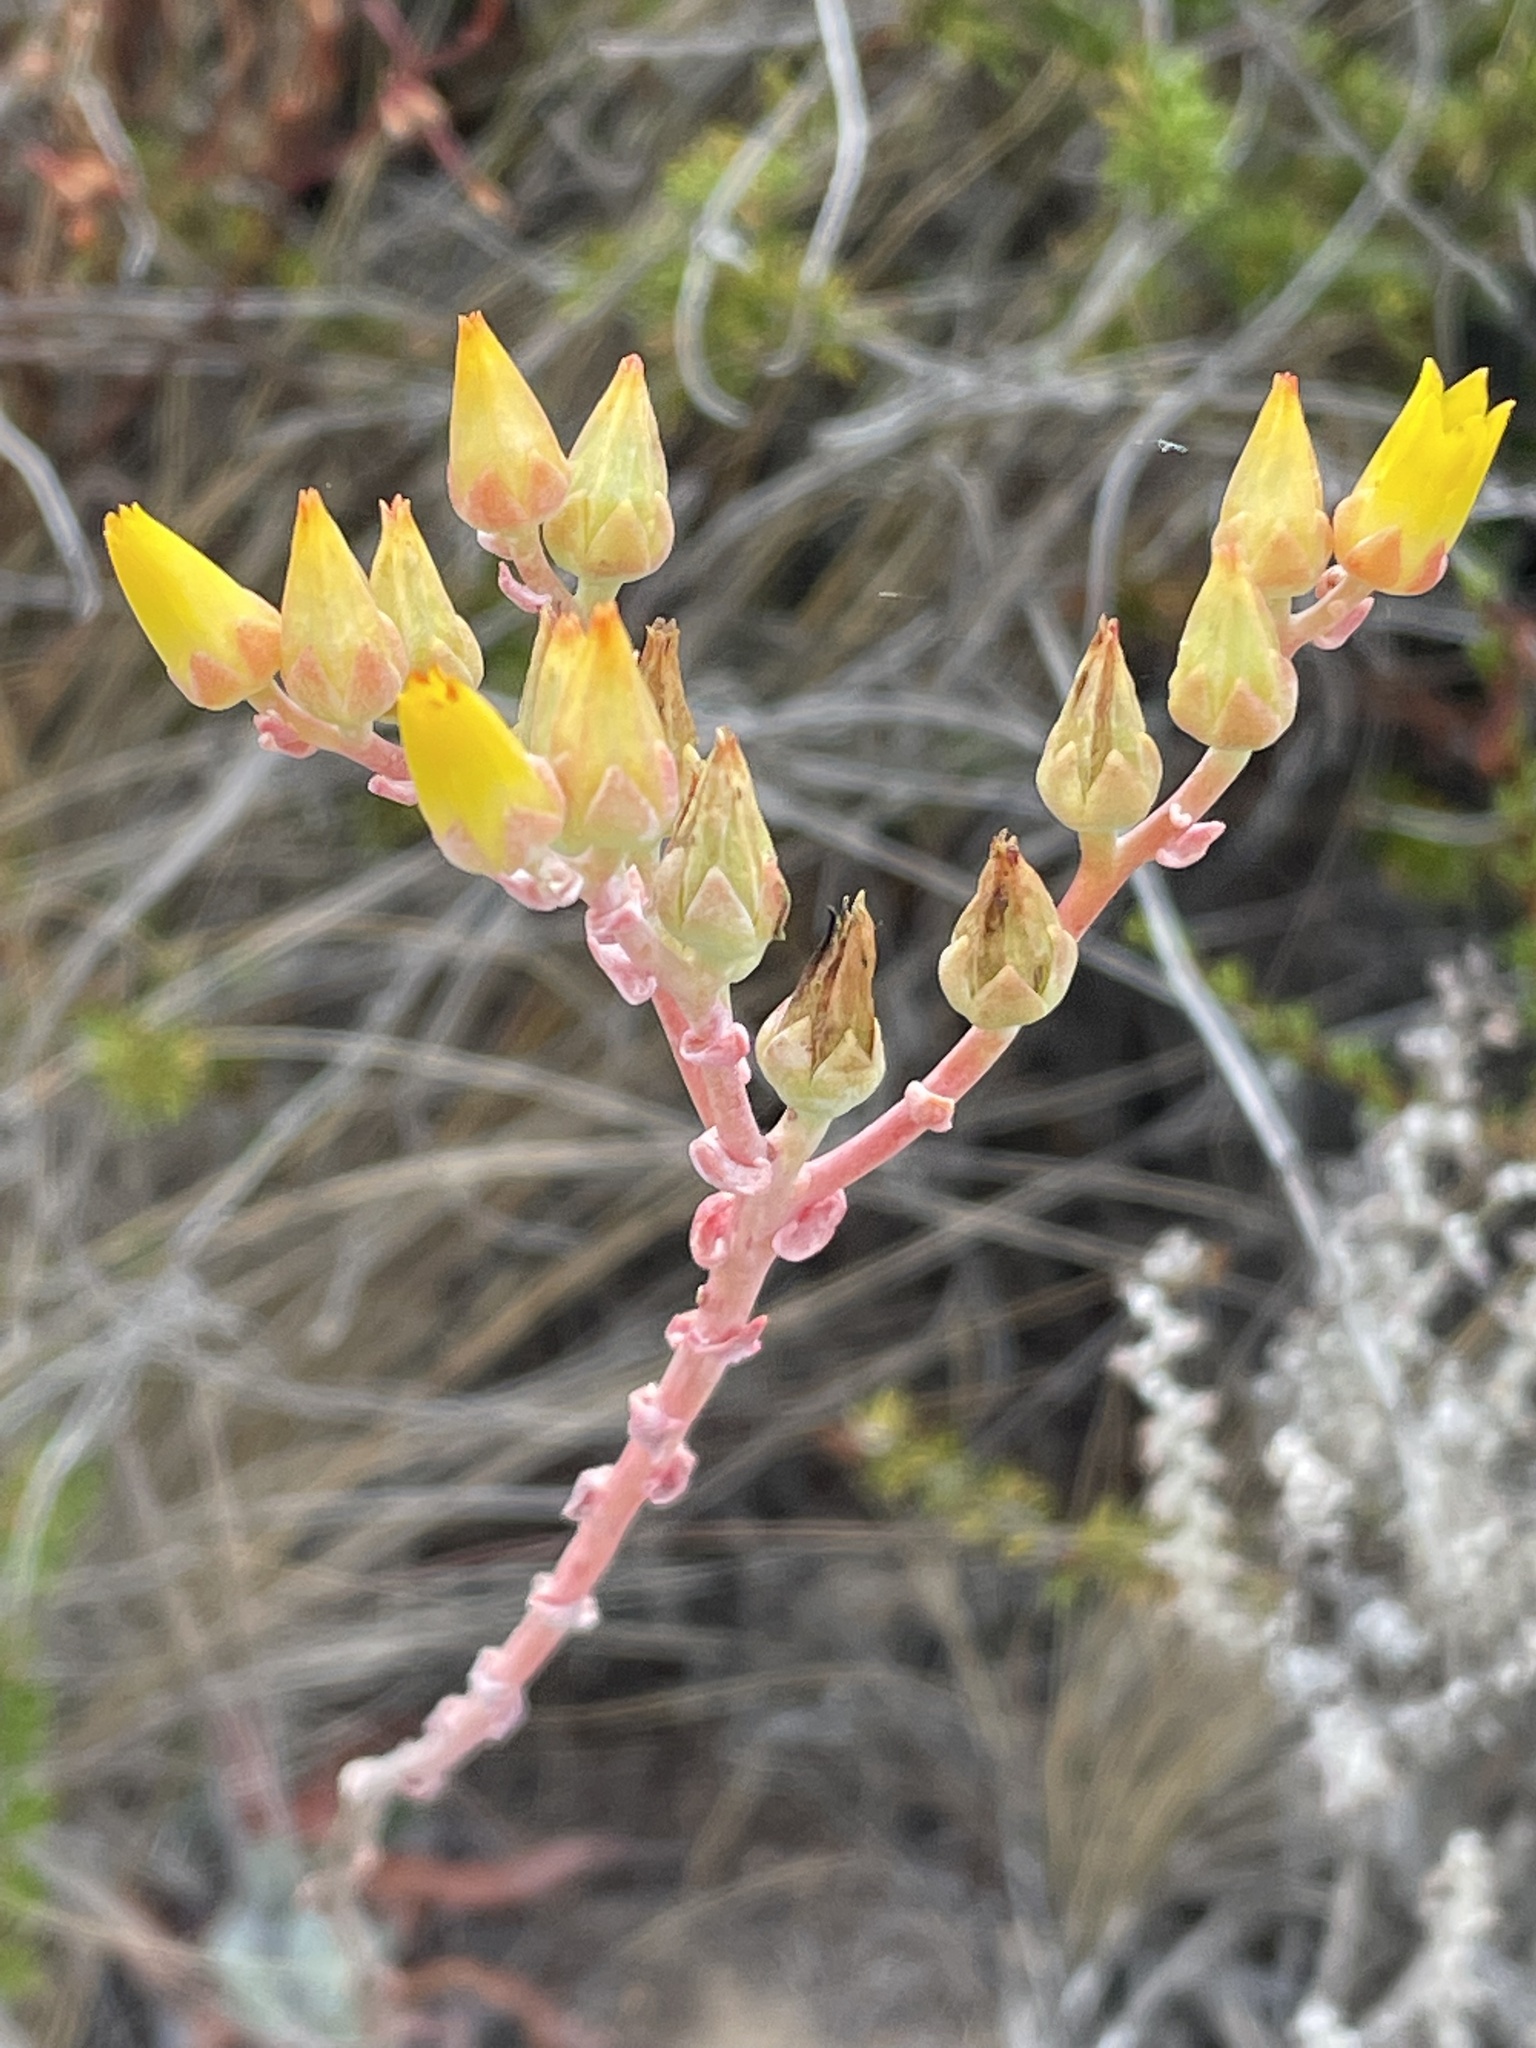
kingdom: Plantae
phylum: Tracheophyta
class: Magnoliopsida
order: Saxifragales
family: Crassulaceae
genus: Dudleya
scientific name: Dudleya caespitosa
